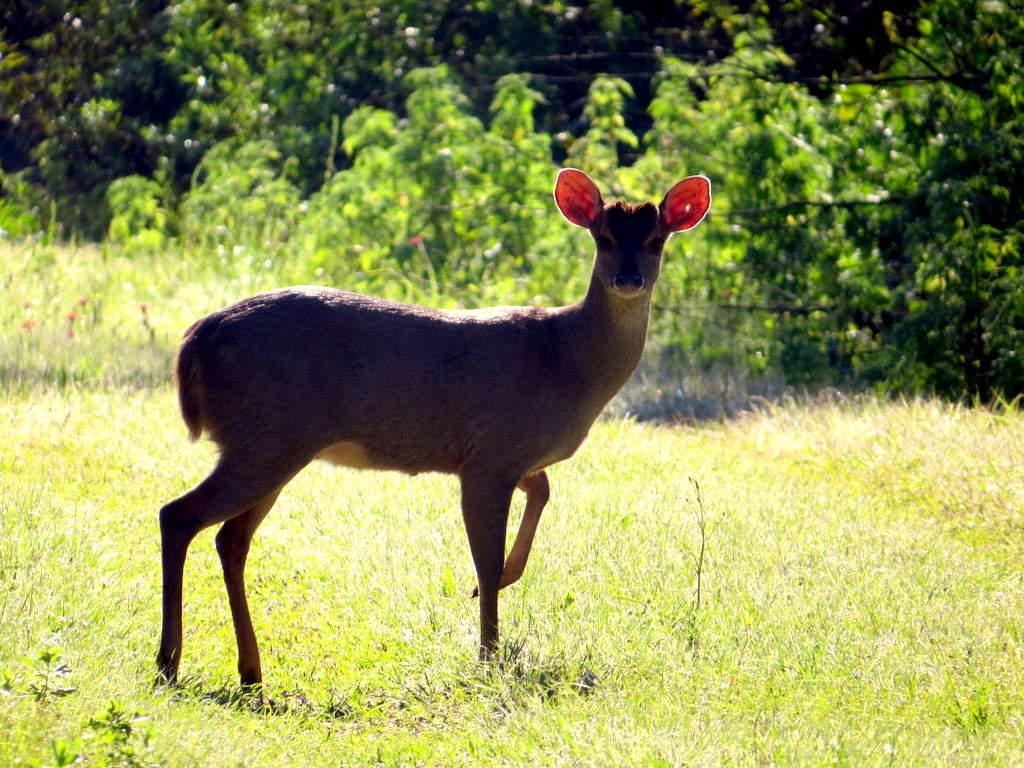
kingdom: Animalia
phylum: Chordata
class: Mammalia
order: Artiodactyla
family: Cervidae
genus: Mazama
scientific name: Mazama gouazoubira
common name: Gray brocket
